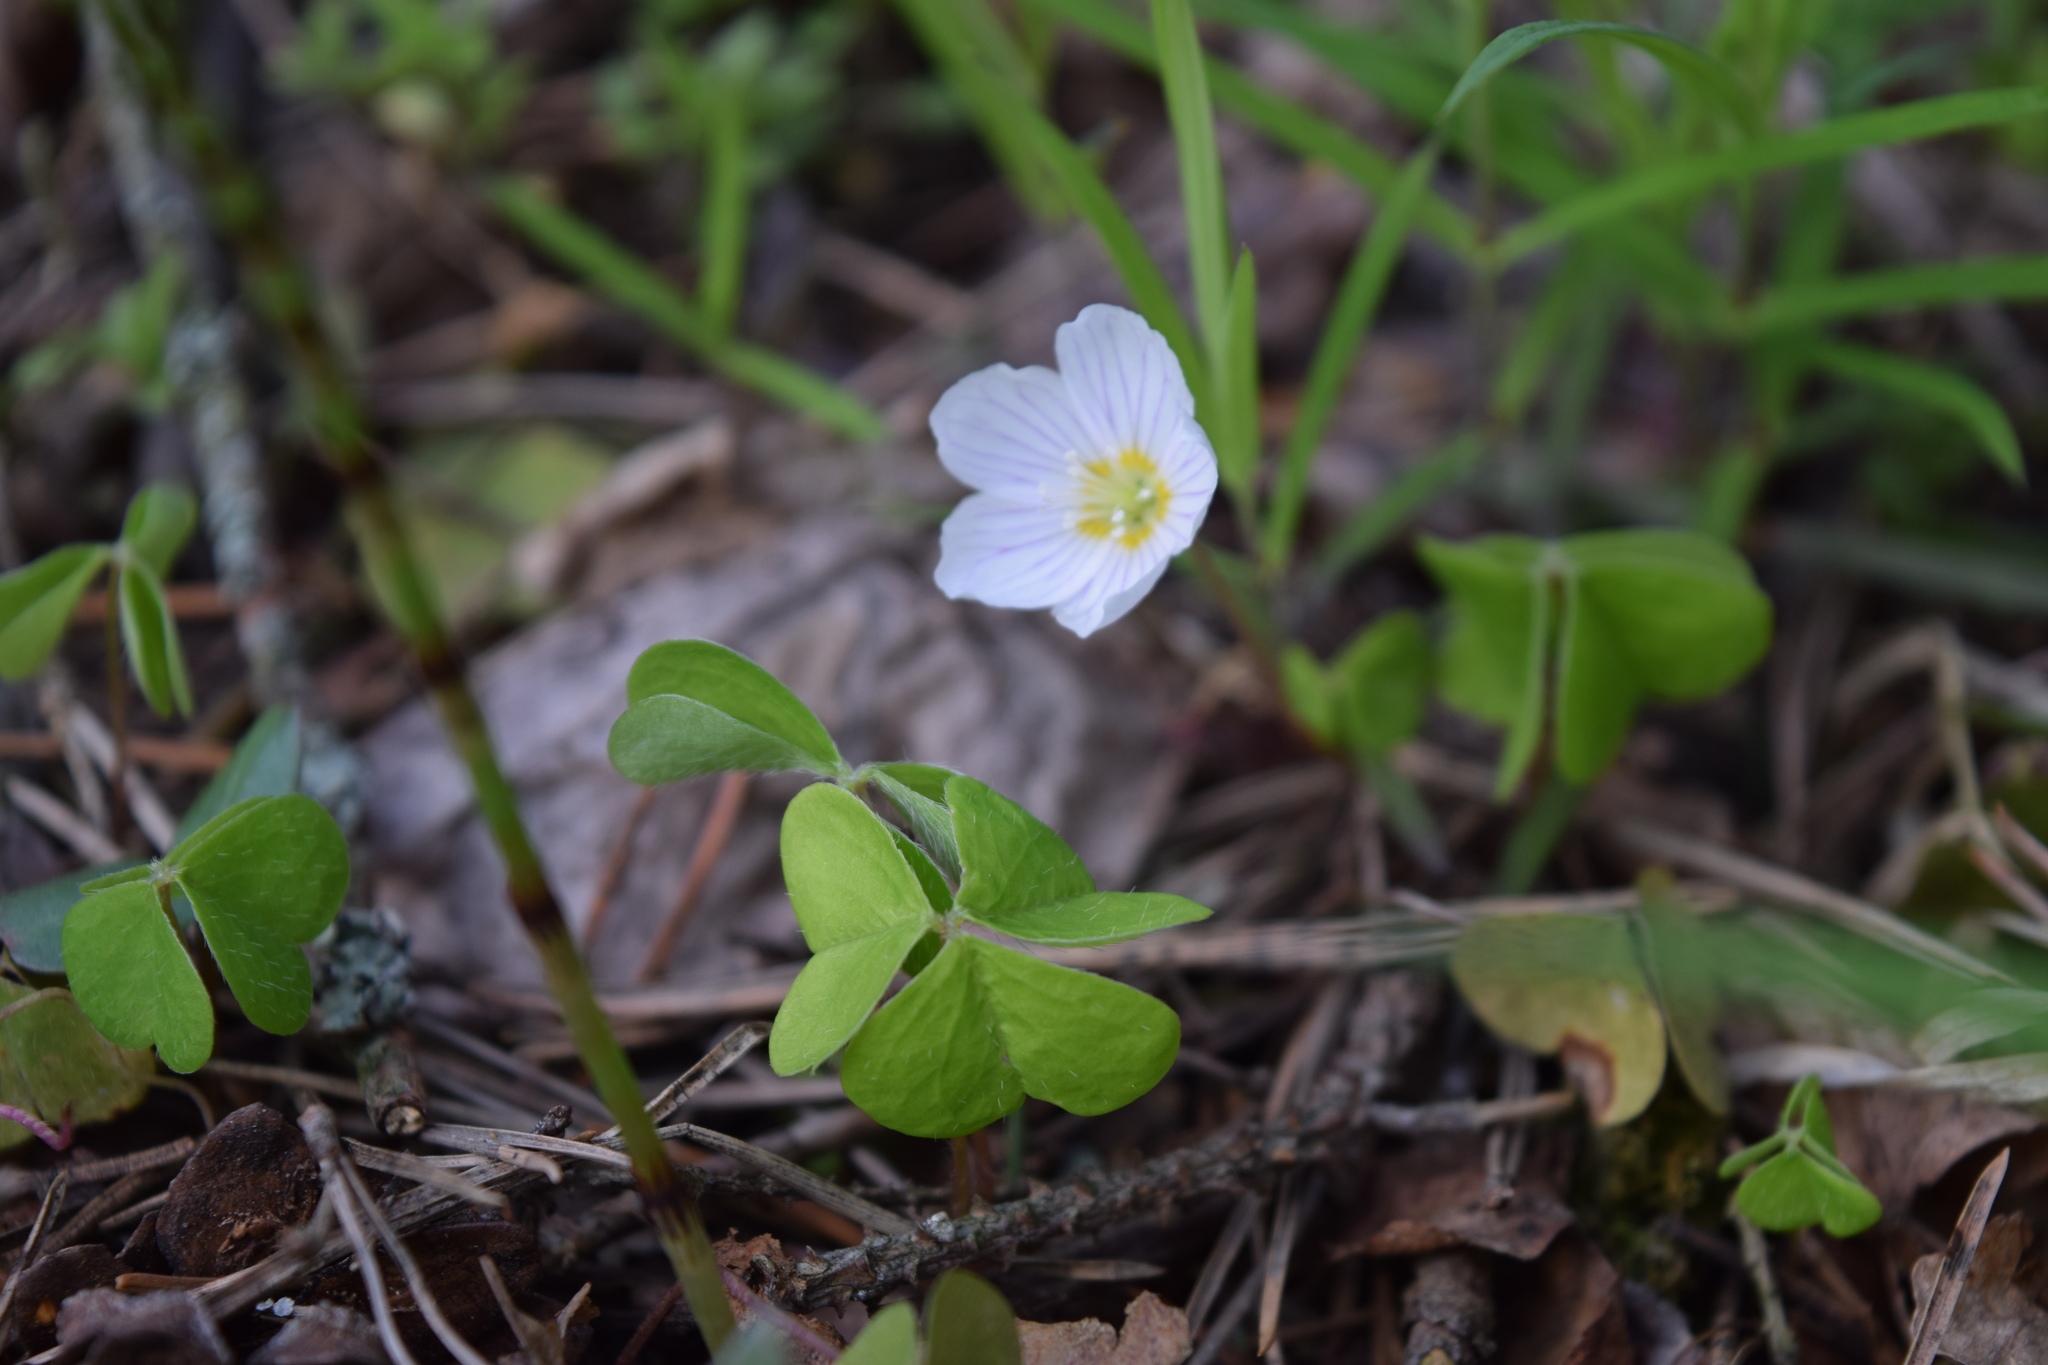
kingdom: Plantae
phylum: Tracheophyta
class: Magnoliopsida
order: Oxalidales
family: Oxalidaceae
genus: Oxalis
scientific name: Oxalis acetosella
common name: Wood-sorrel
